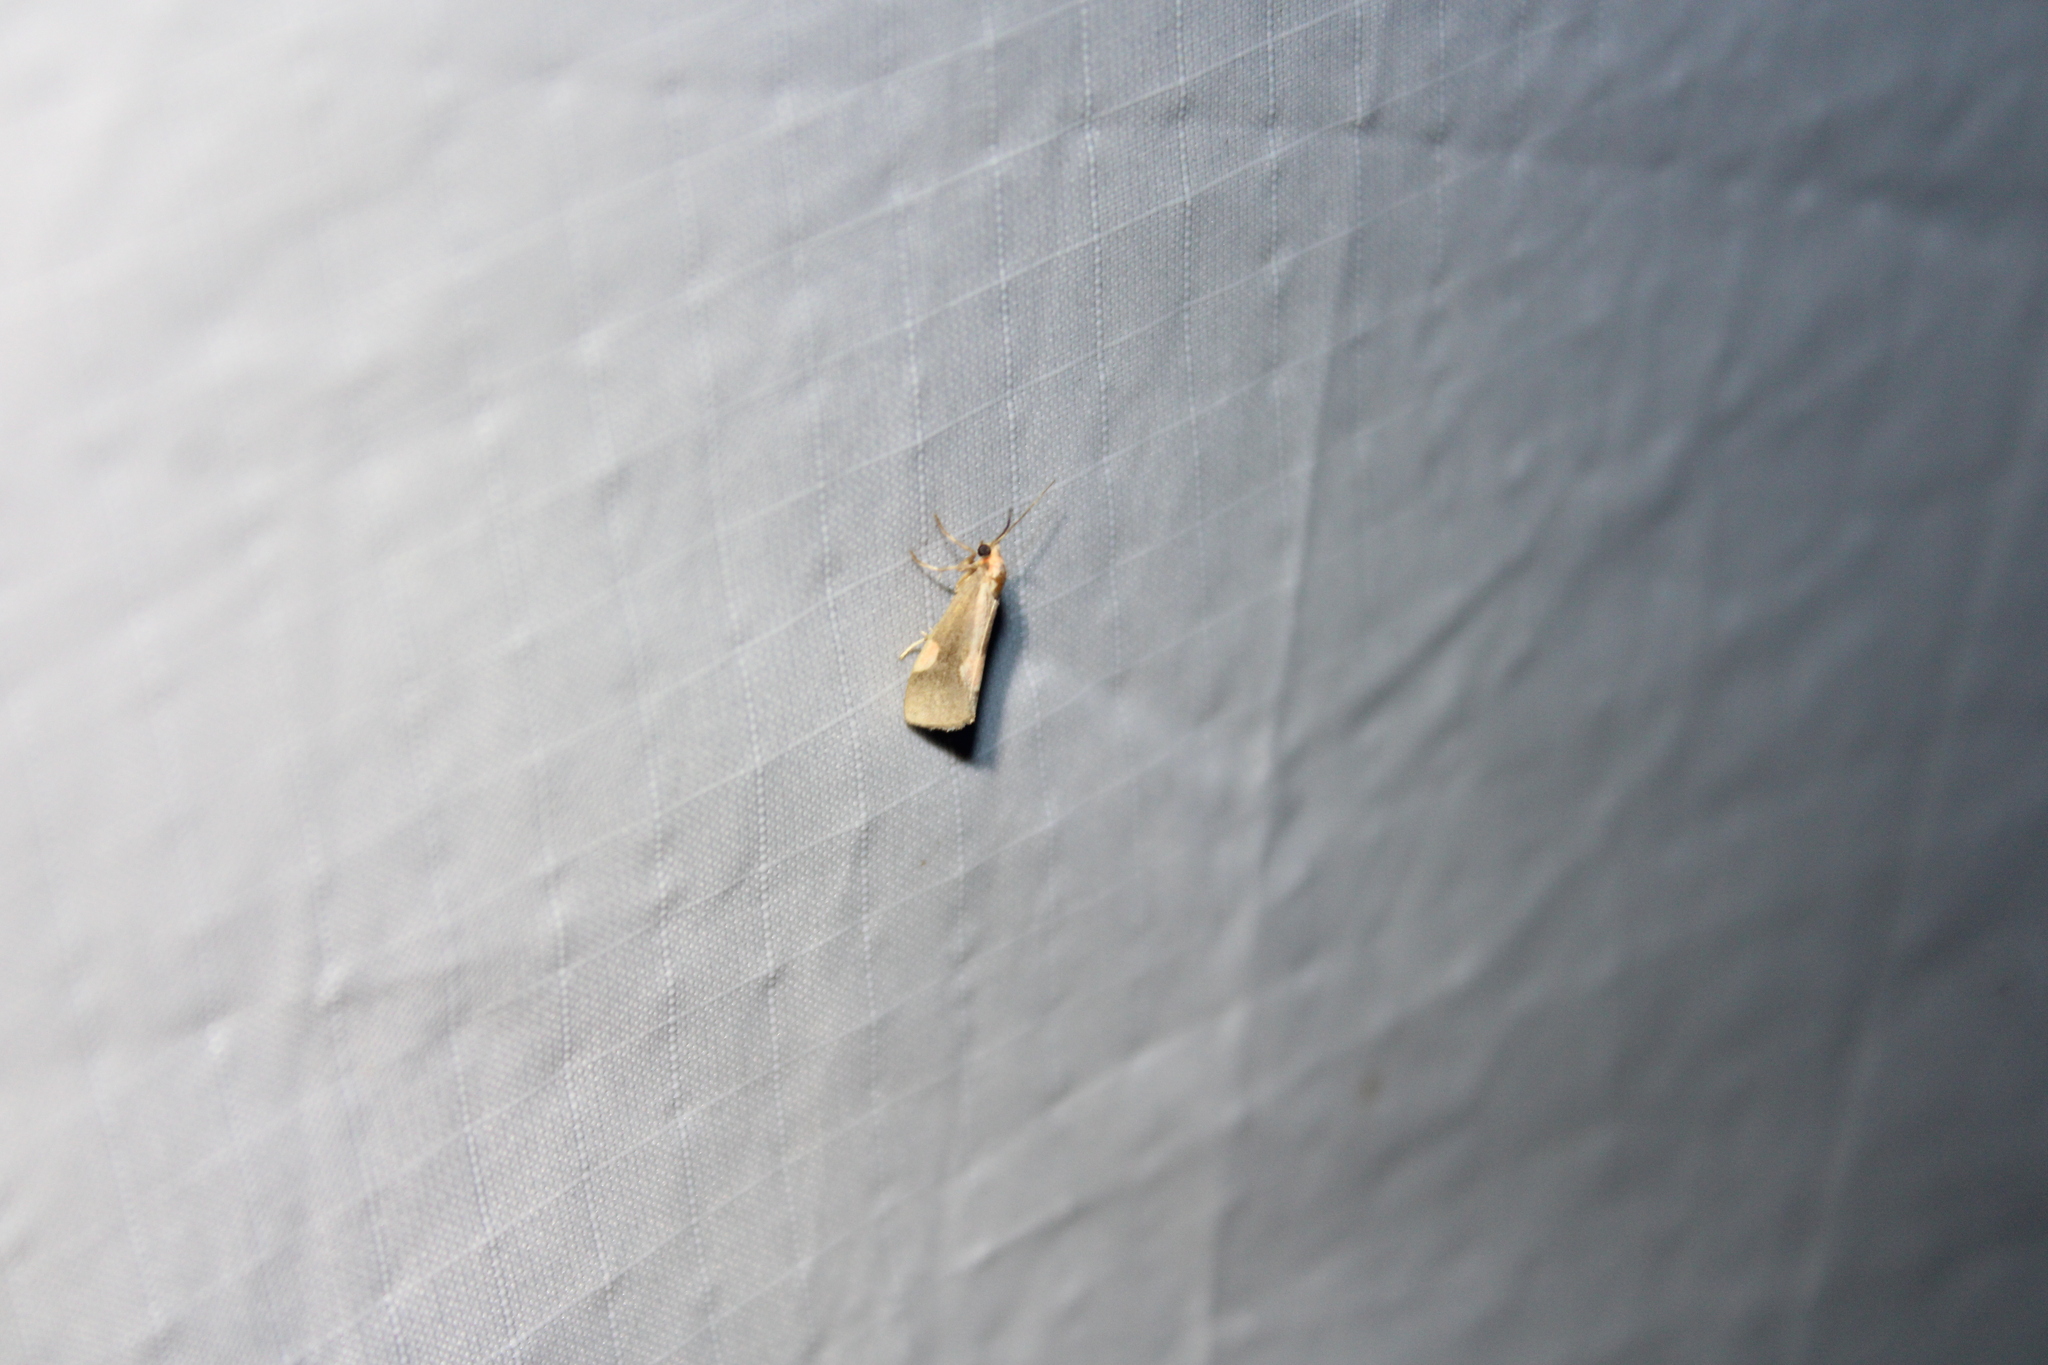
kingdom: Animalia
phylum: Arthropoda
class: Insecta
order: Lepidoptera
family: Erebidae
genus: Cisthene
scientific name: Cisthene packardii
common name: Packard's lichen moth
